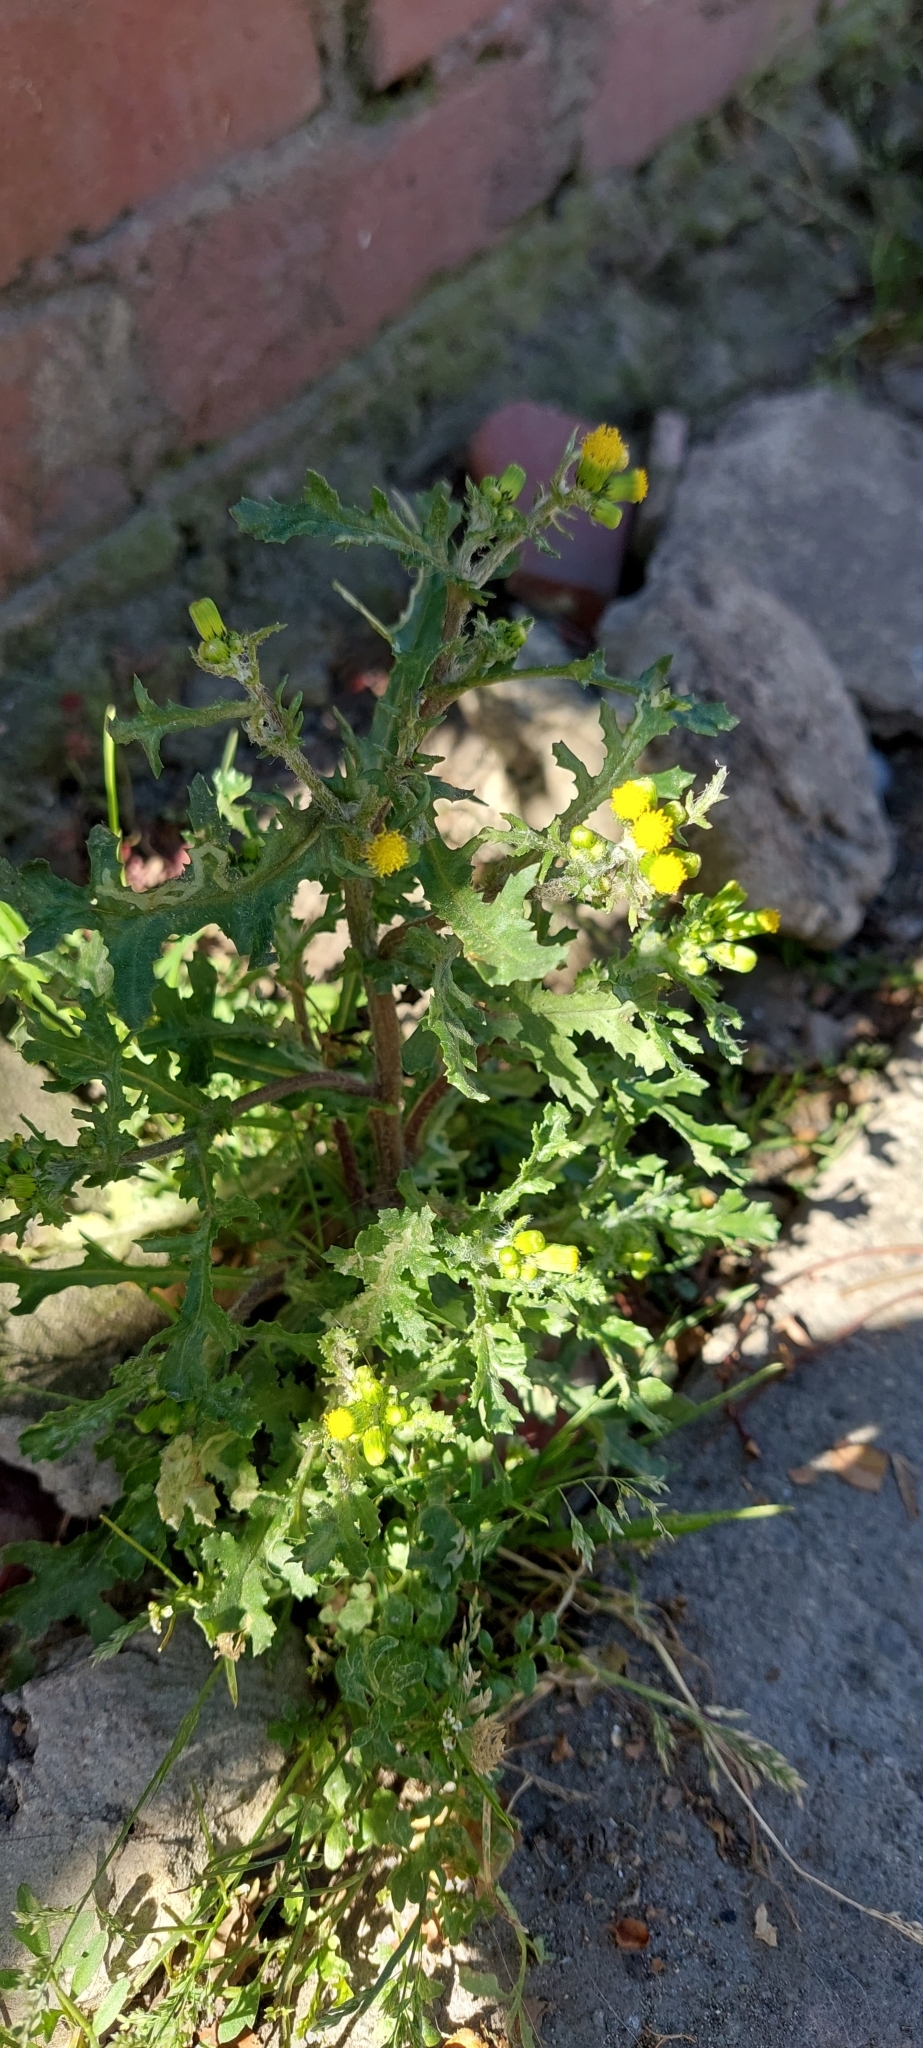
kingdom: Plantae
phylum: Tracheophyta
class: Magnoliopsida
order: Asterales
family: Asteraceae
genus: Senecio
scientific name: Senecio vulgaris
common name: Old-man-in-the-spring
